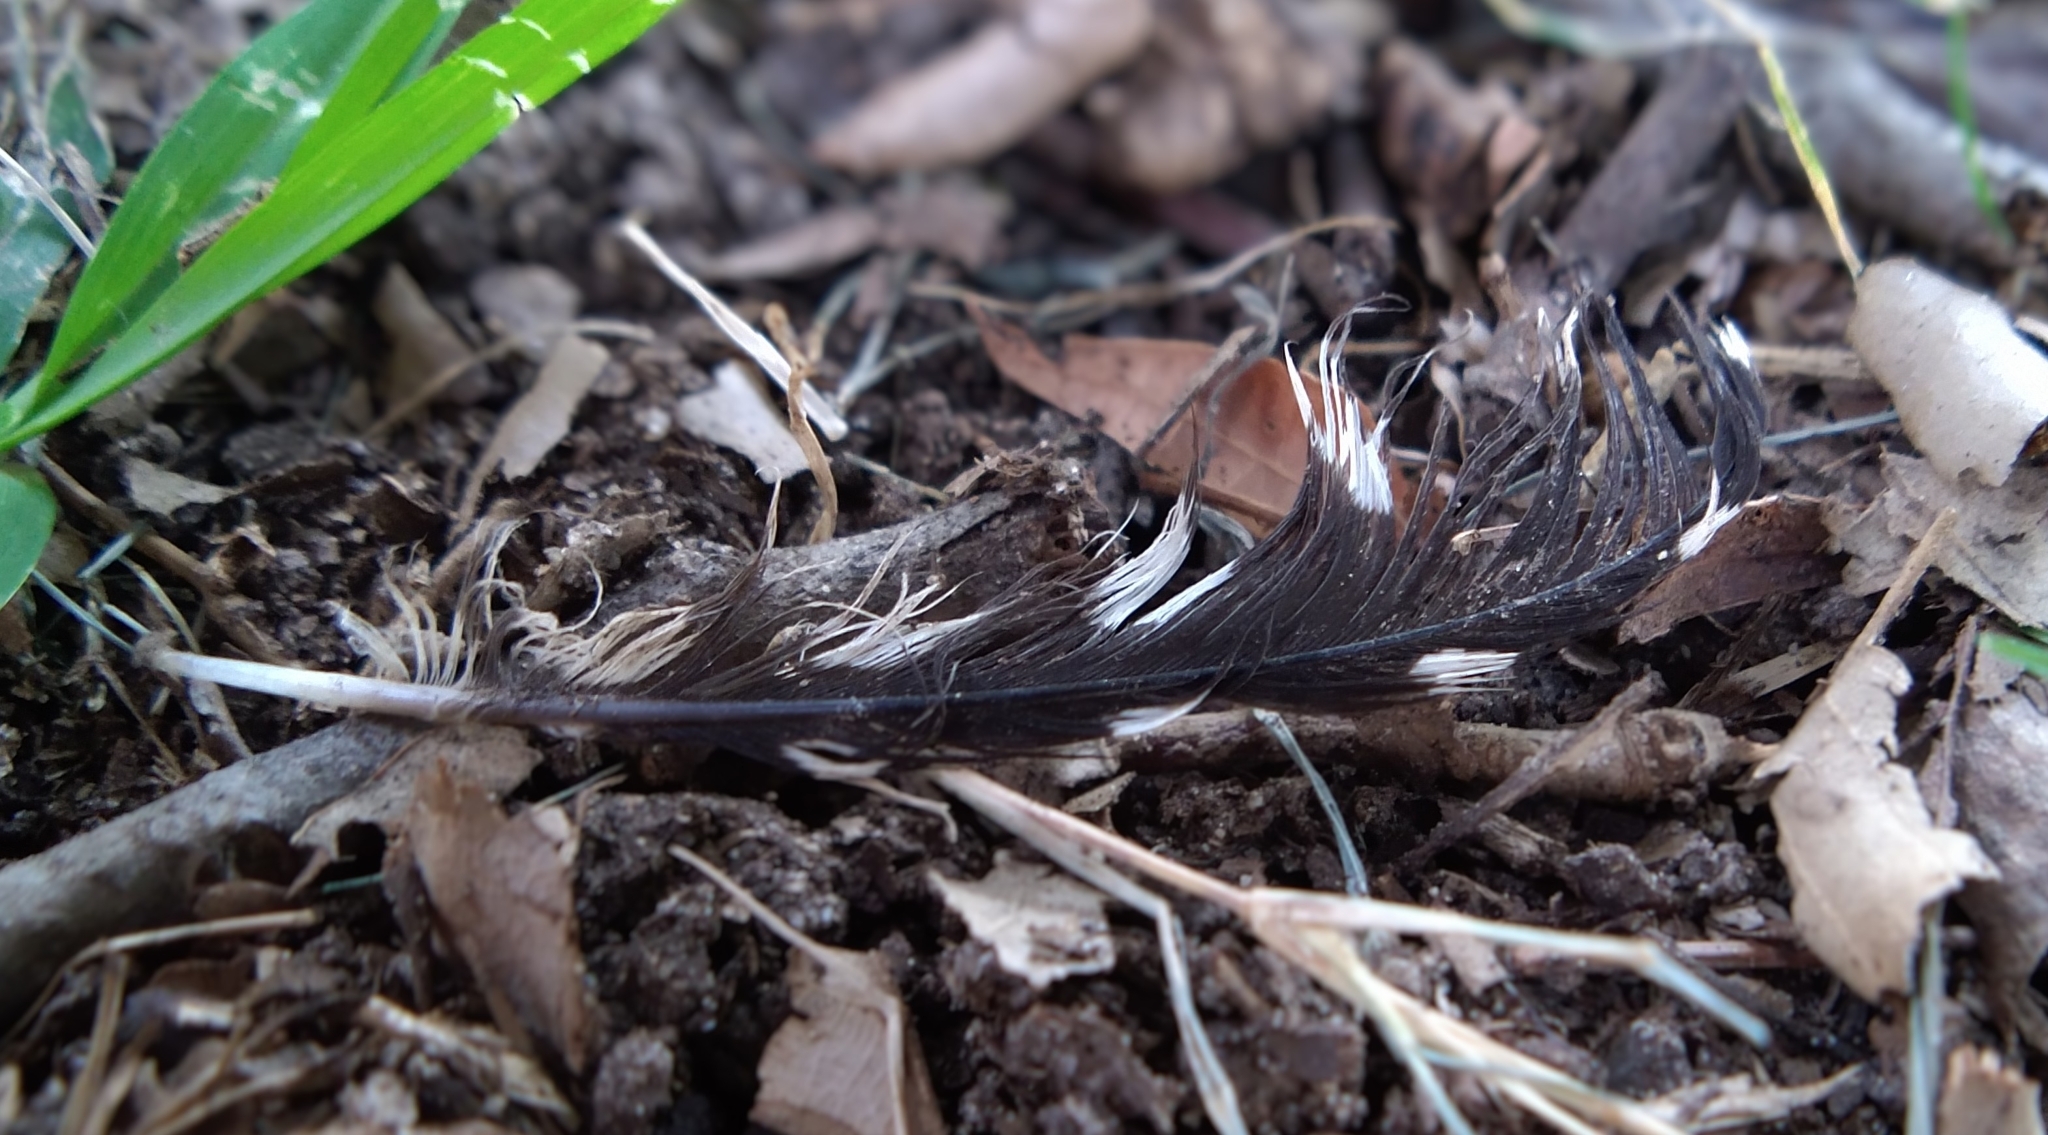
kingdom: Animalia
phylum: Chordata
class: Aves
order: Piciformes
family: Picidae
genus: Dryobates
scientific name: Dryobates nuttallii
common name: Nuttall's woodpecker
